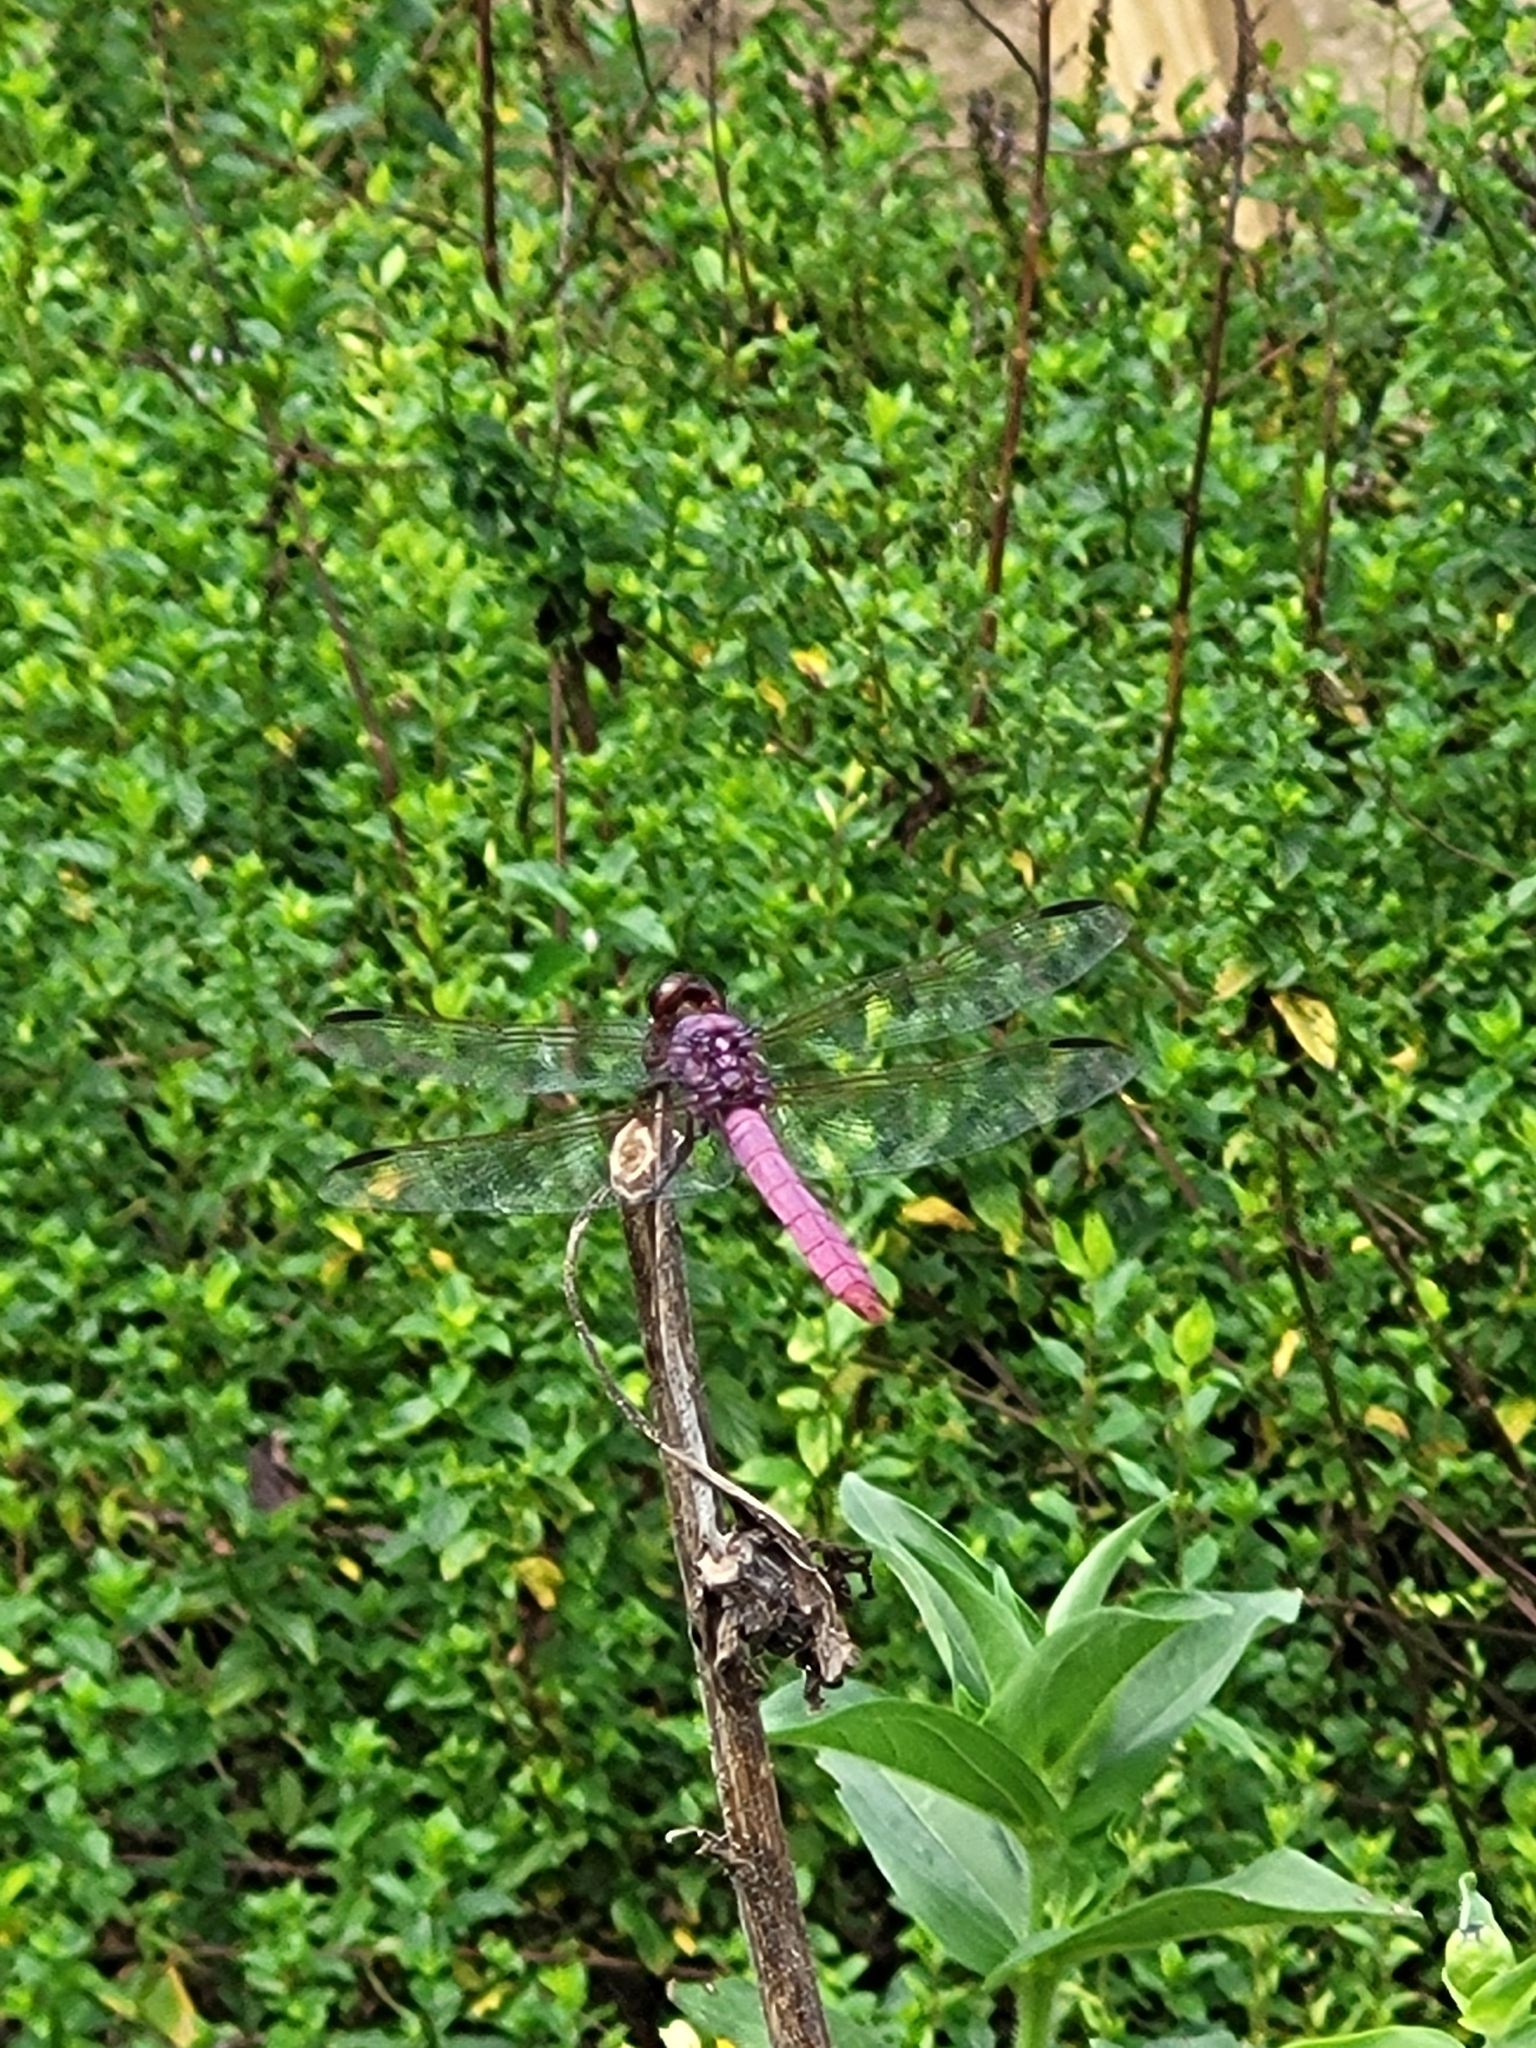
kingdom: Animalia
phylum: Arthropoda
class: Insecta
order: Odonata
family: Libellulidae
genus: Orthemis
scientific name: Orthemis ferruginea
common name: Roseate skimmer
